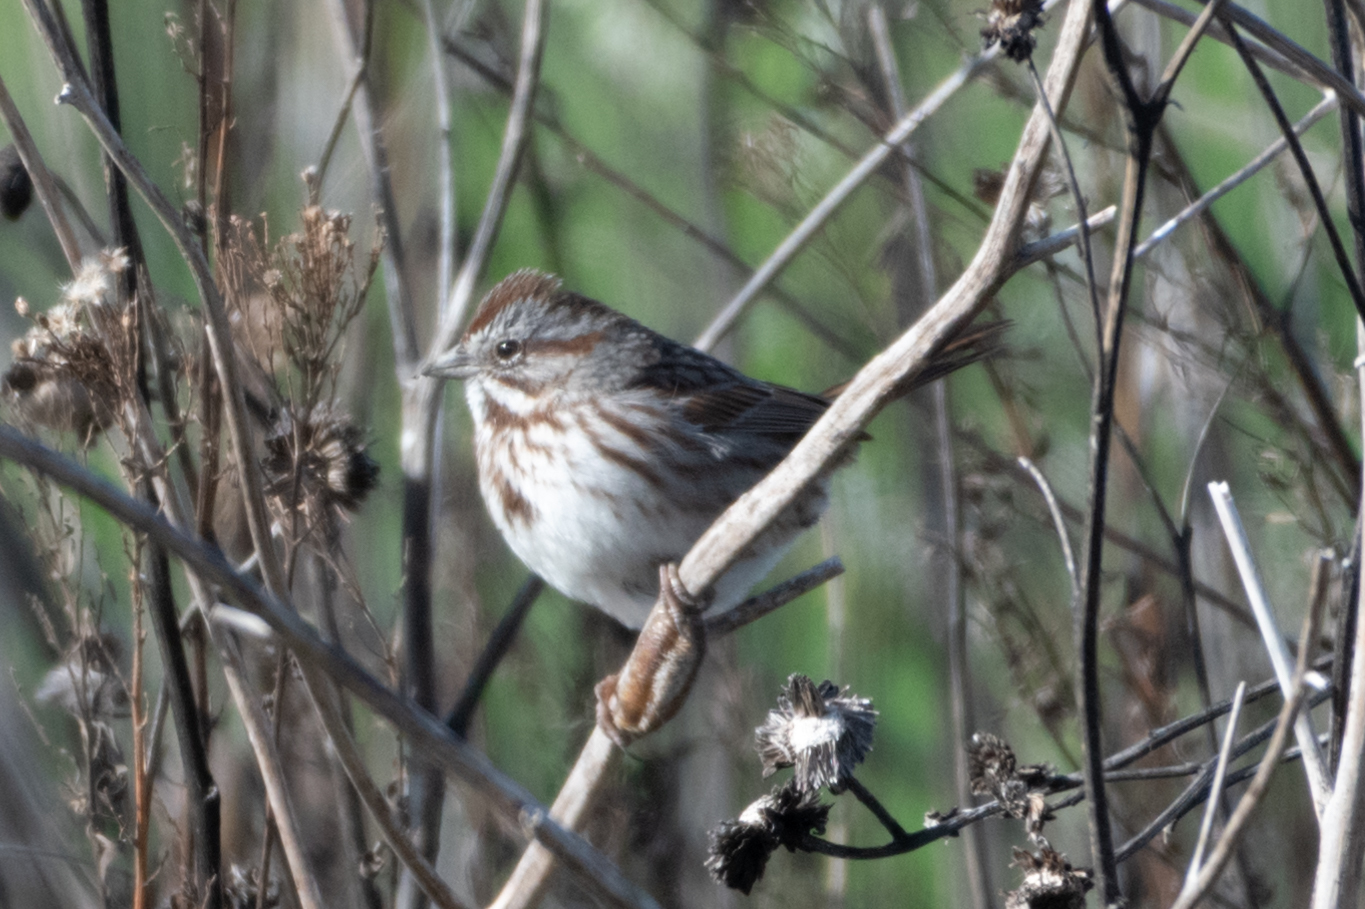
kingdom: Animalia
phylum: Chordata
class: Aves
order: Passeriformes
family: Passerellidae
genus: Melospiza
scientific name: Melospiza melodia
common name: Song sparrow
